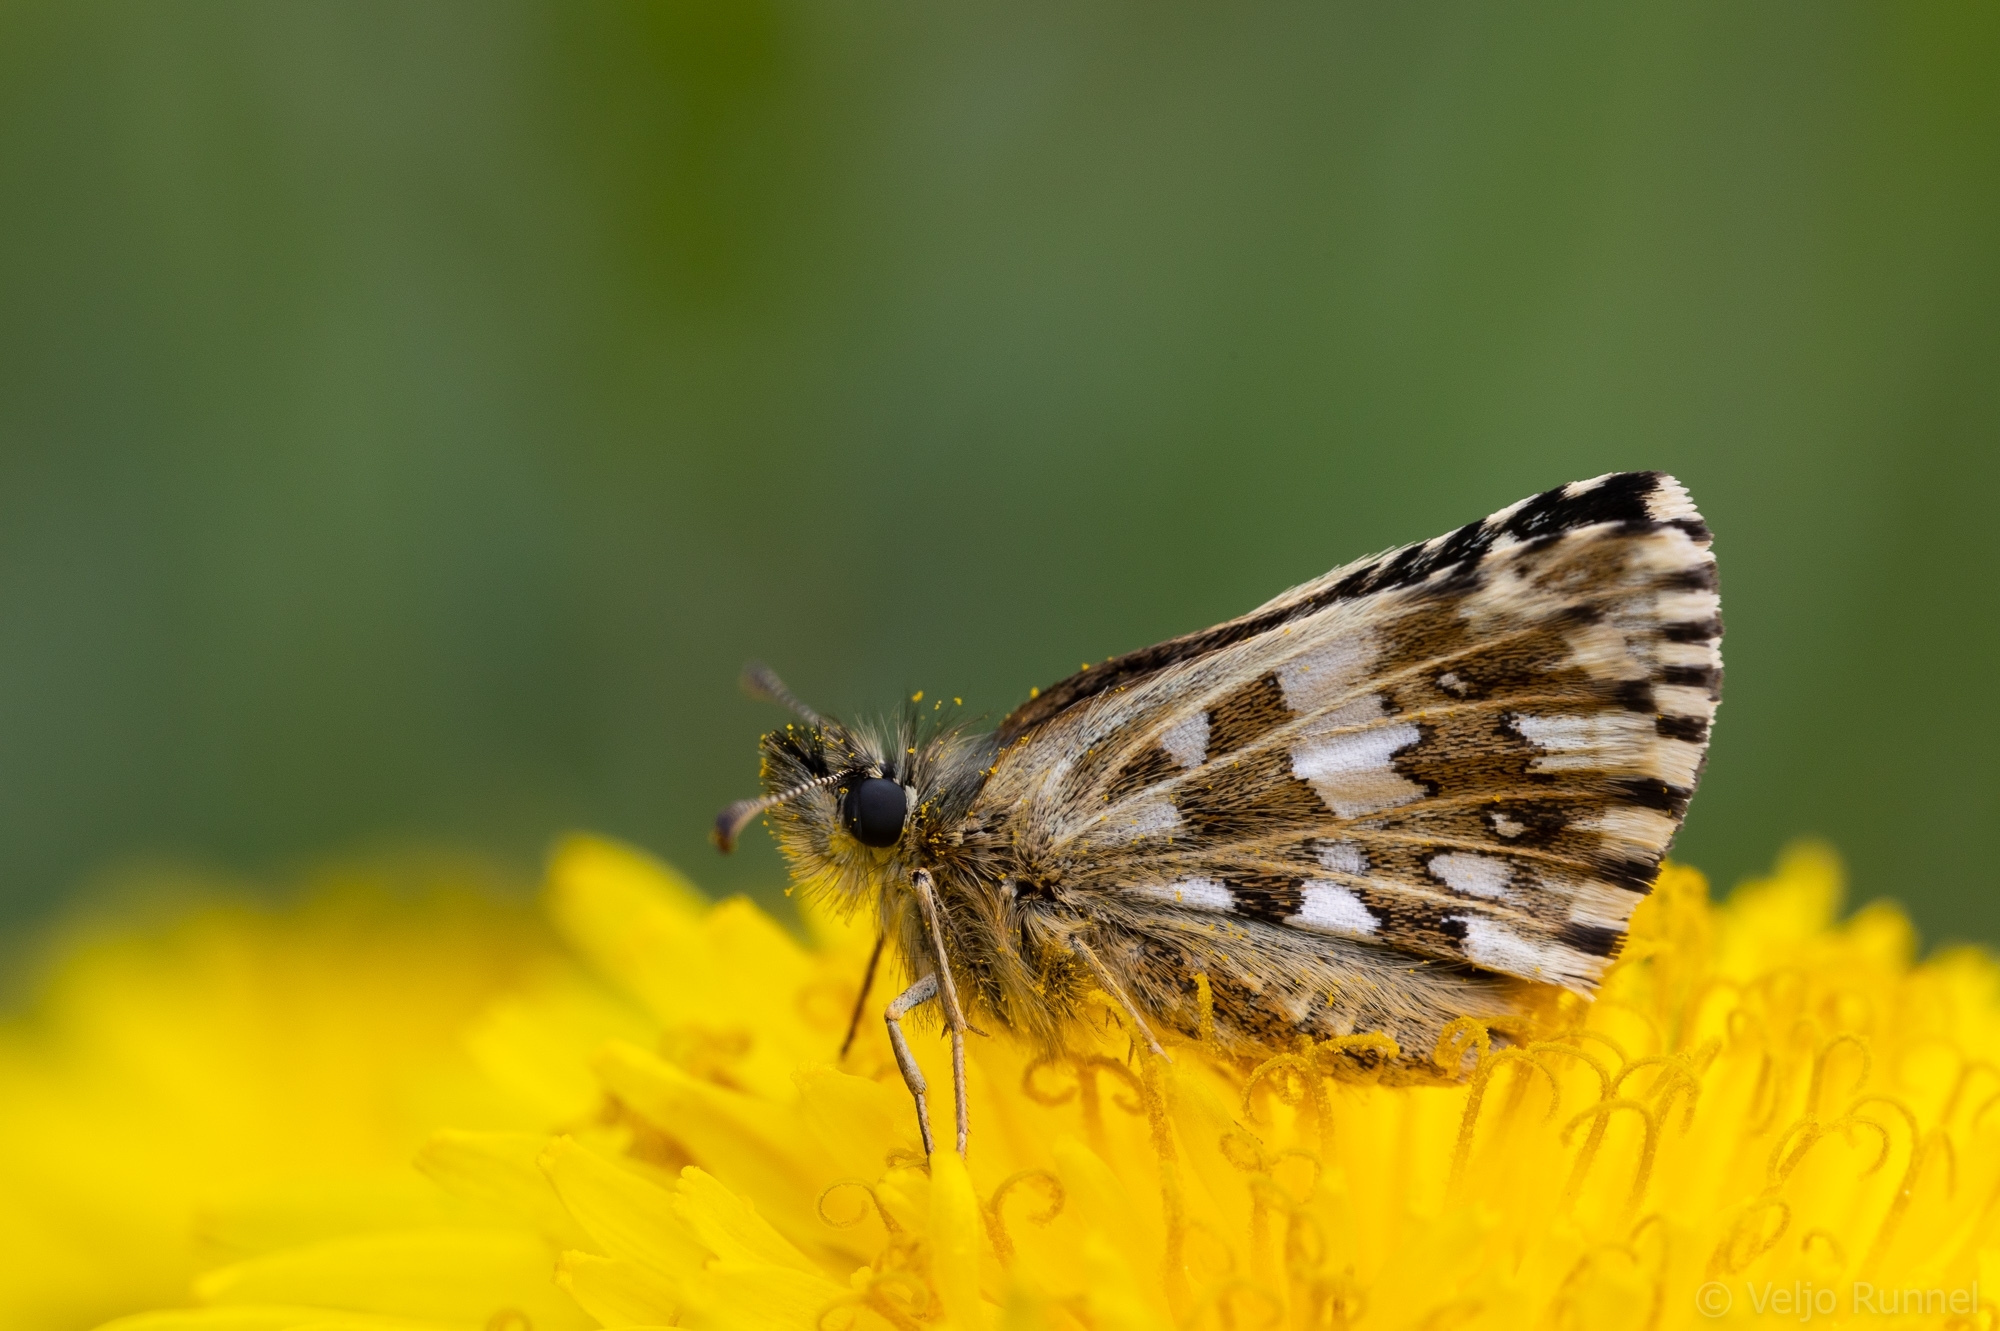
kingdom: Animalia
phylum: Arthropoda
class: Insecta
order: Lepidoptera
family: Hesperiidae
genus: Pyrgus
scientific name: Pyrgus malvae
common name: Grizzled skipper
